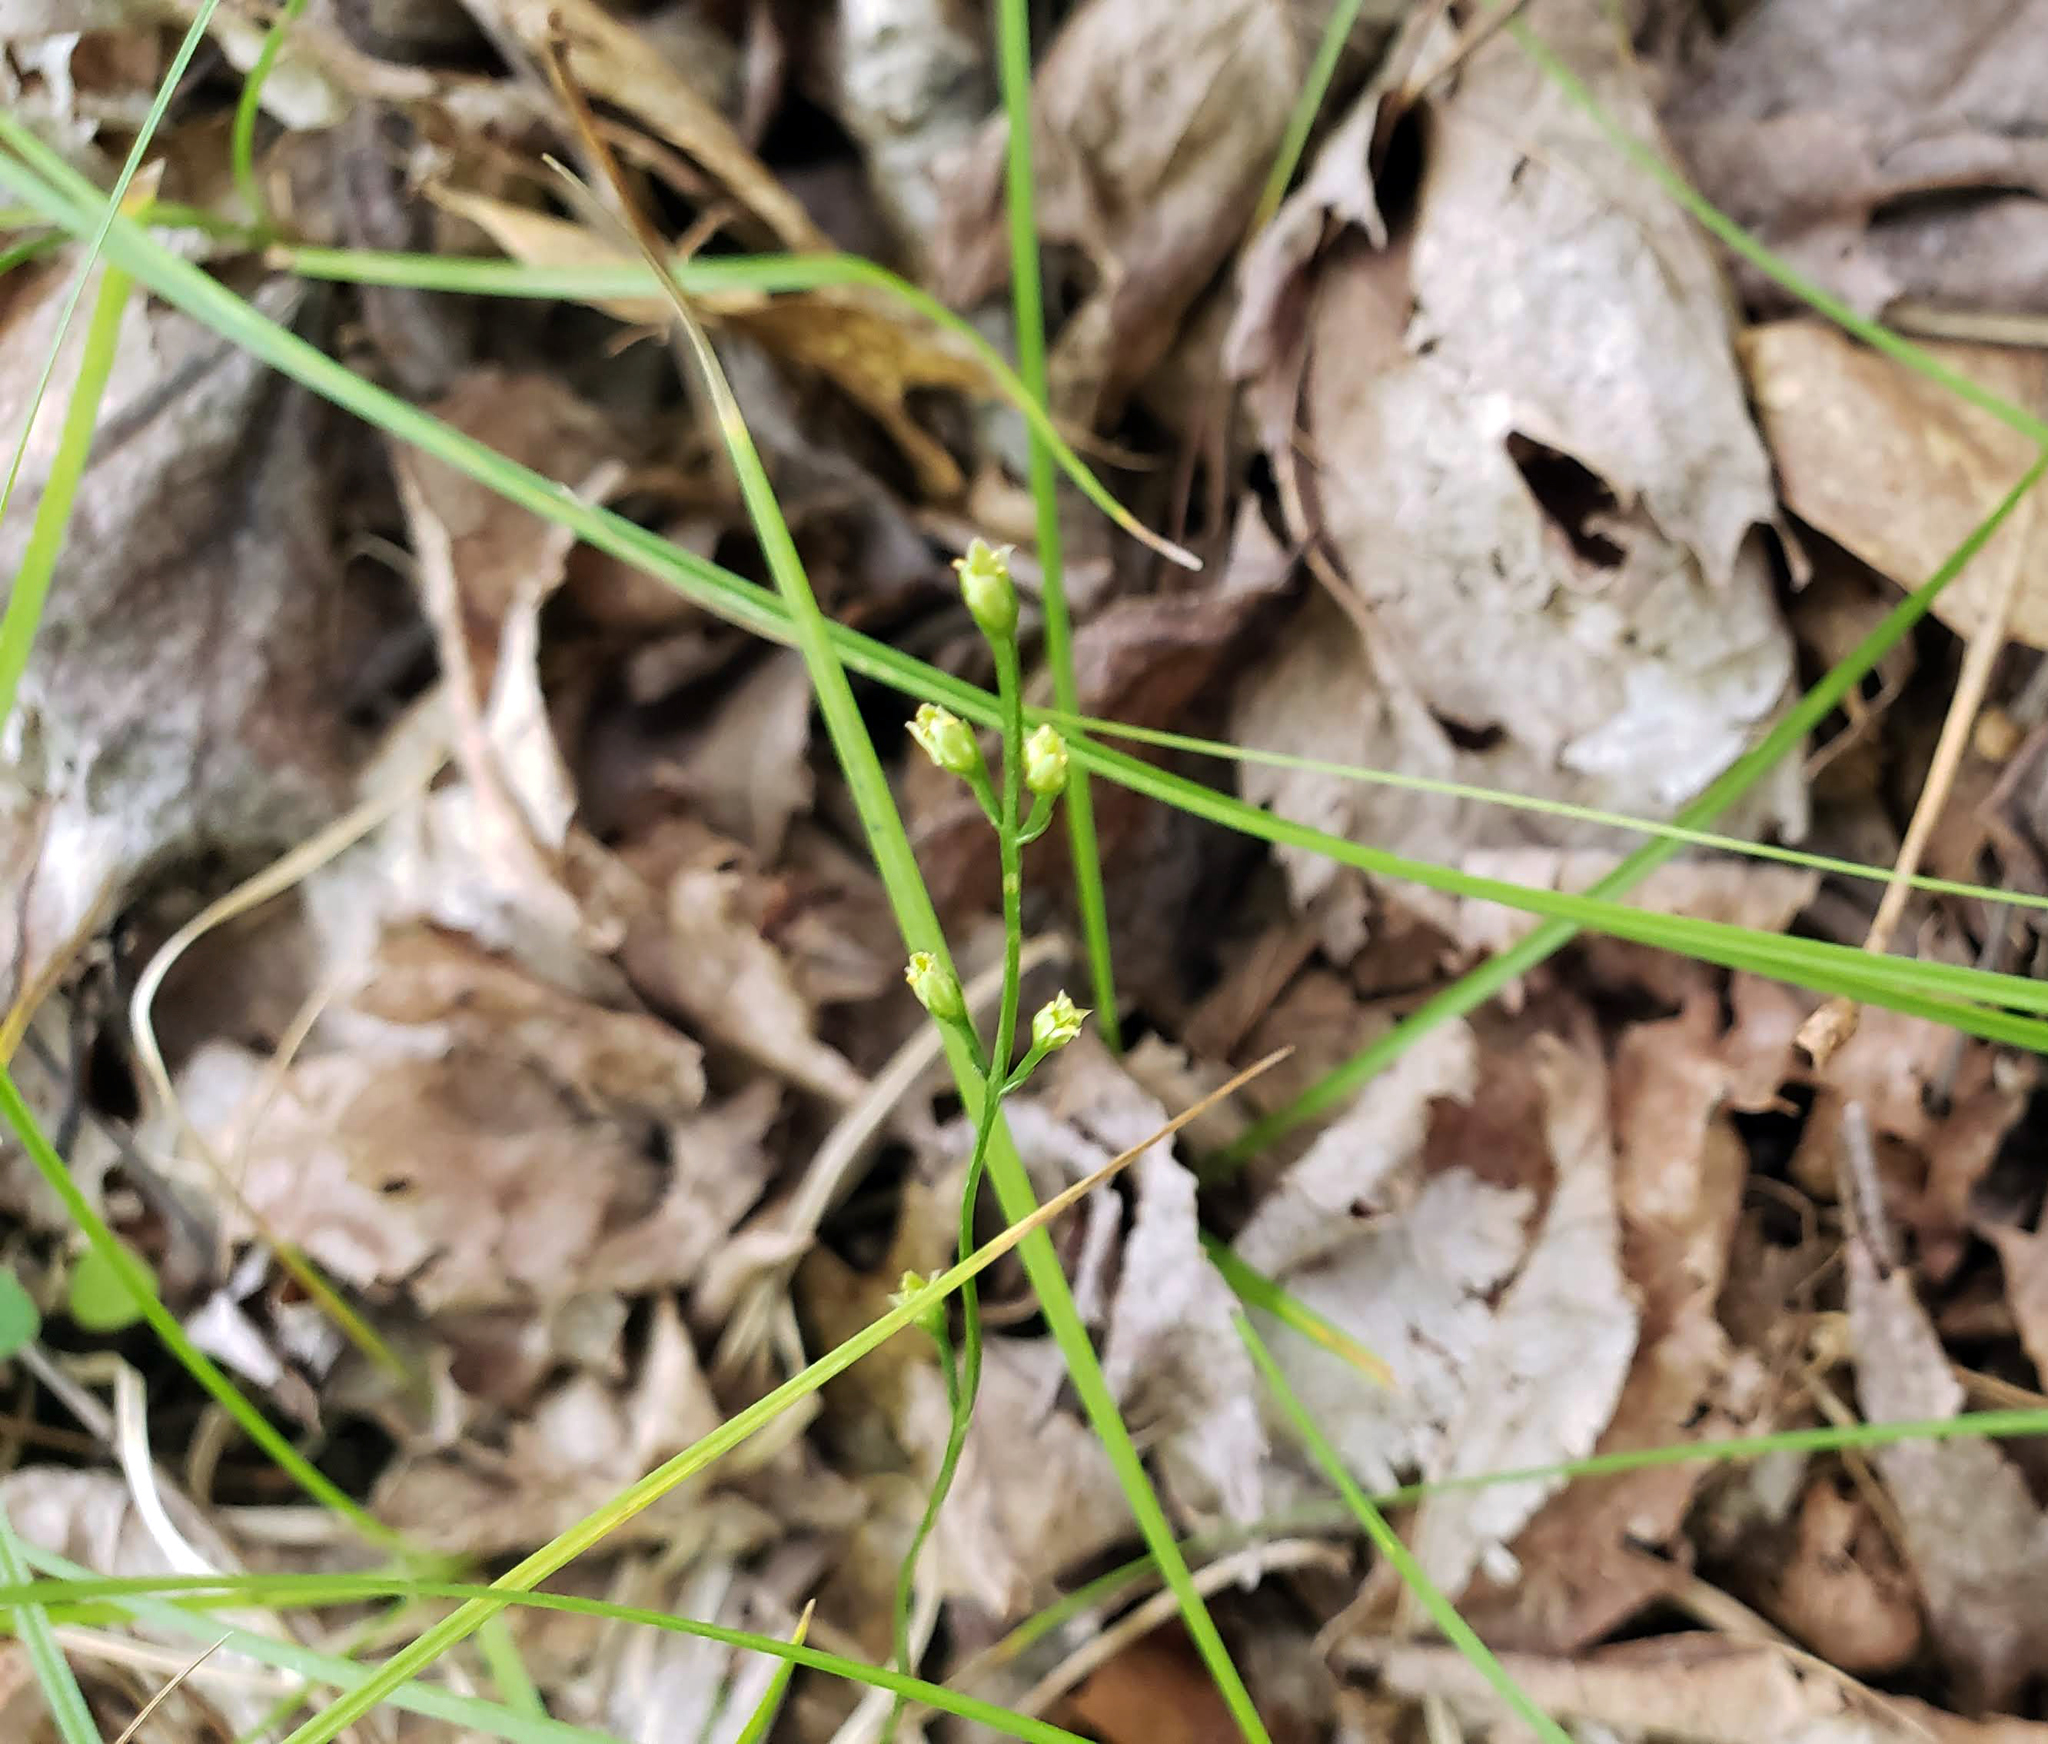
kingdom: Plantae
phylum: Tracheophyta
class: Magnoliopsida
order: Gentianales
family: Gentianaceae
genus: Bartonia
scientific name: Bartonia virginica
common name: Yellow bartonia
